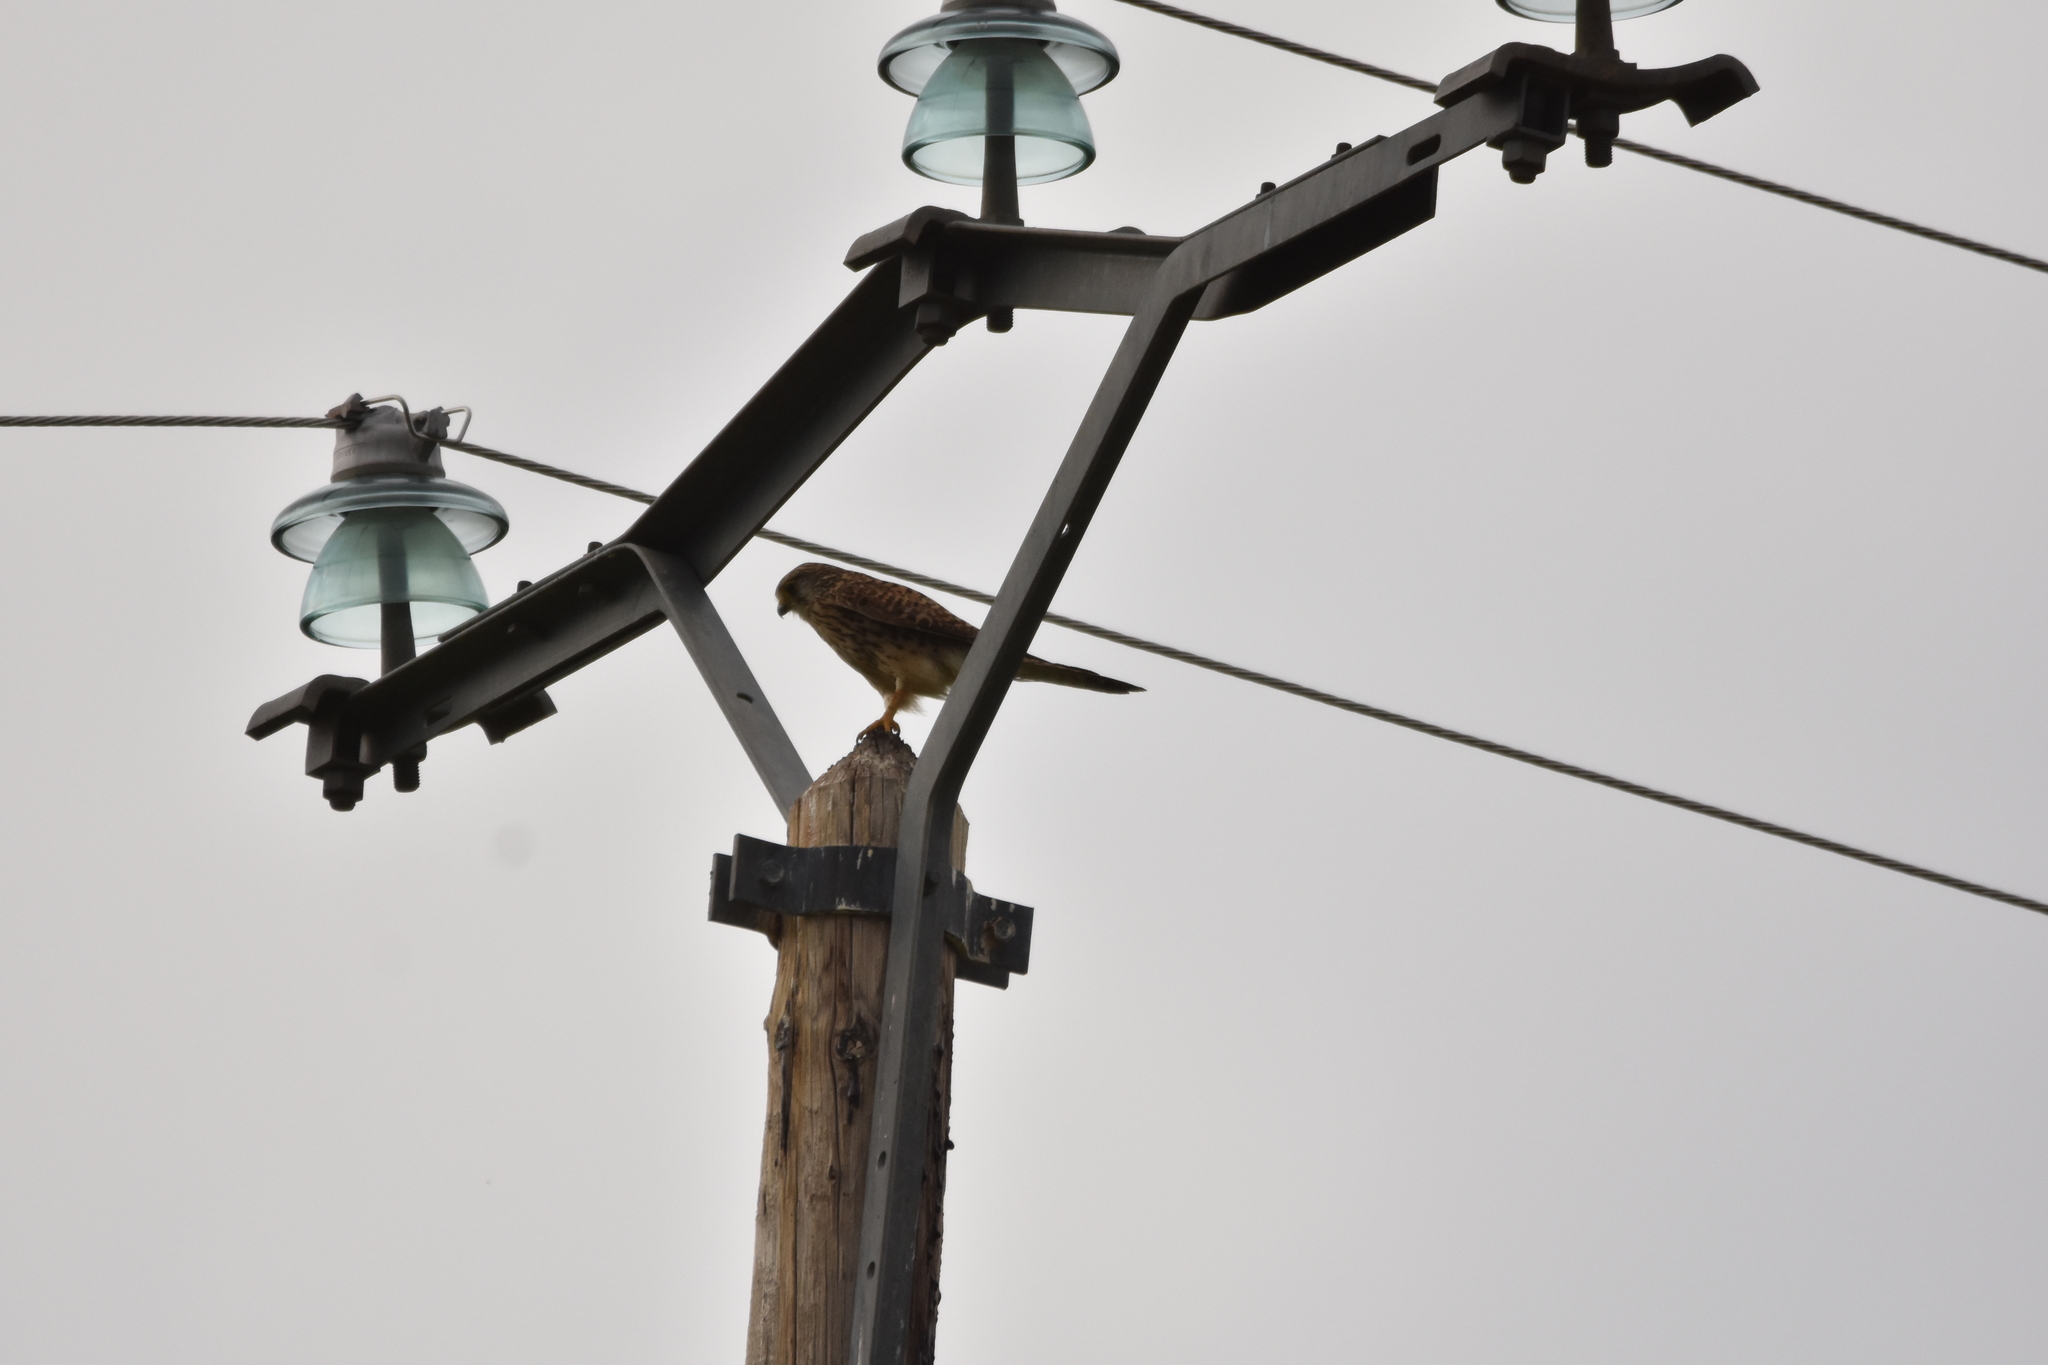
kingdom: Animalia
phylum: Chordata
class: Aves
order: Falconiformes
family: Falconidae
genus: Falco
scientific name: Falco tinnunculus
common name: Common kestrel
